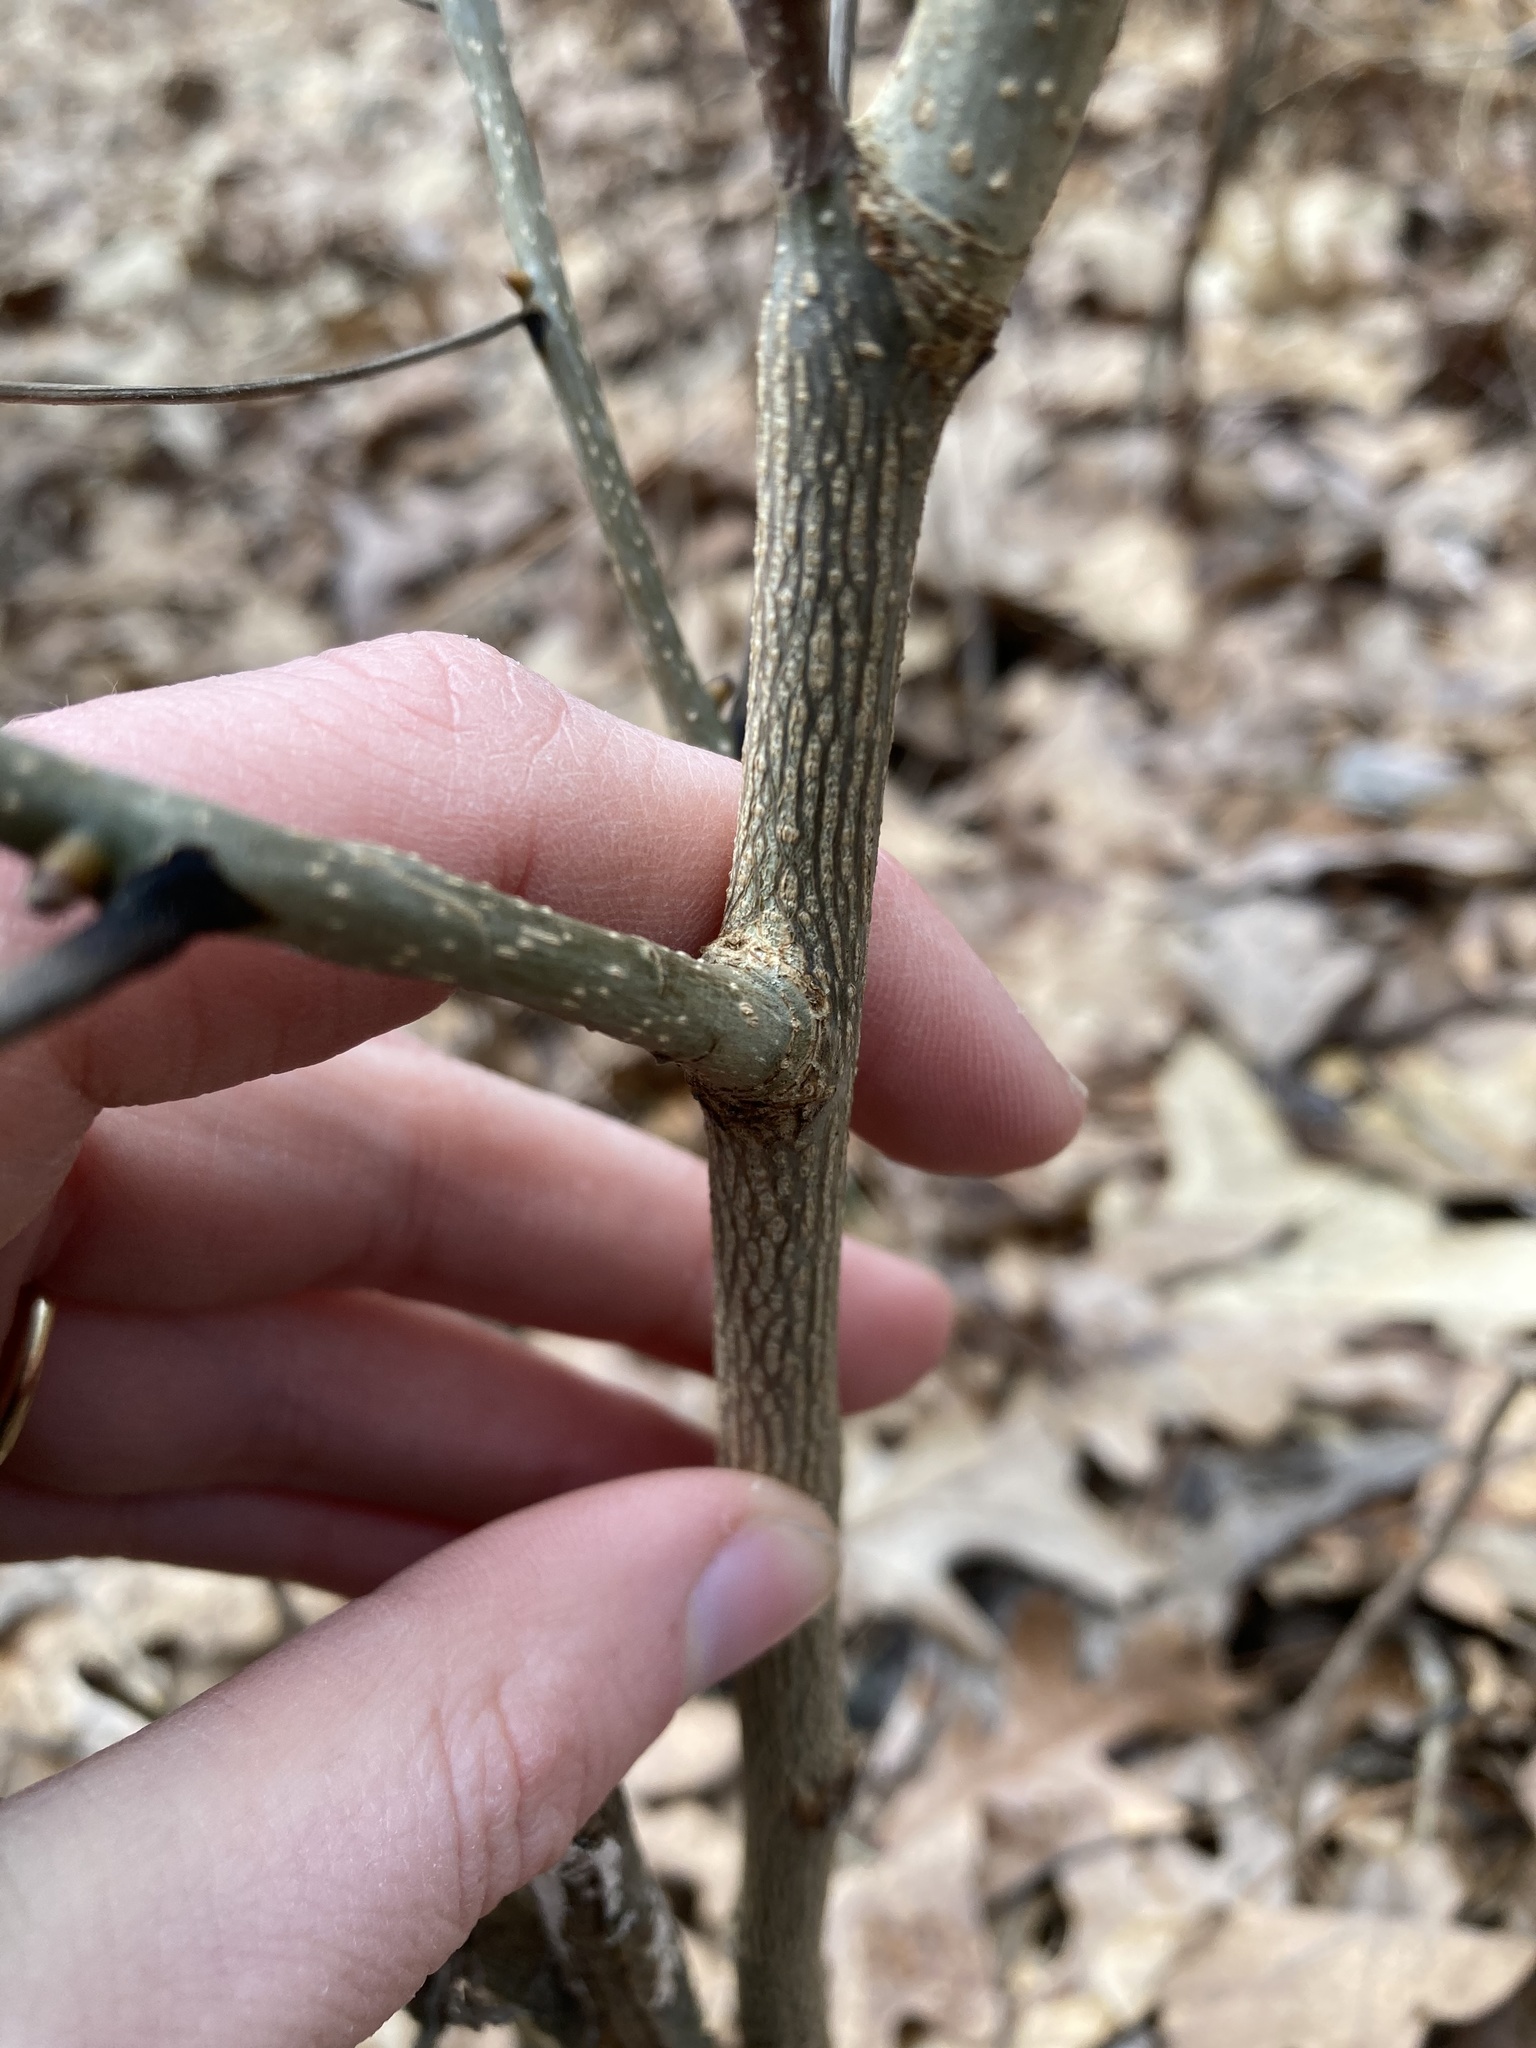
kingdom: Plantae
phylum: Tracheophyta
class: Magnoliopsida
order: Fagales
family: Juglandaceae
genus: Carya
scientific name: Carya ovata
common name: Shagbark hickory
